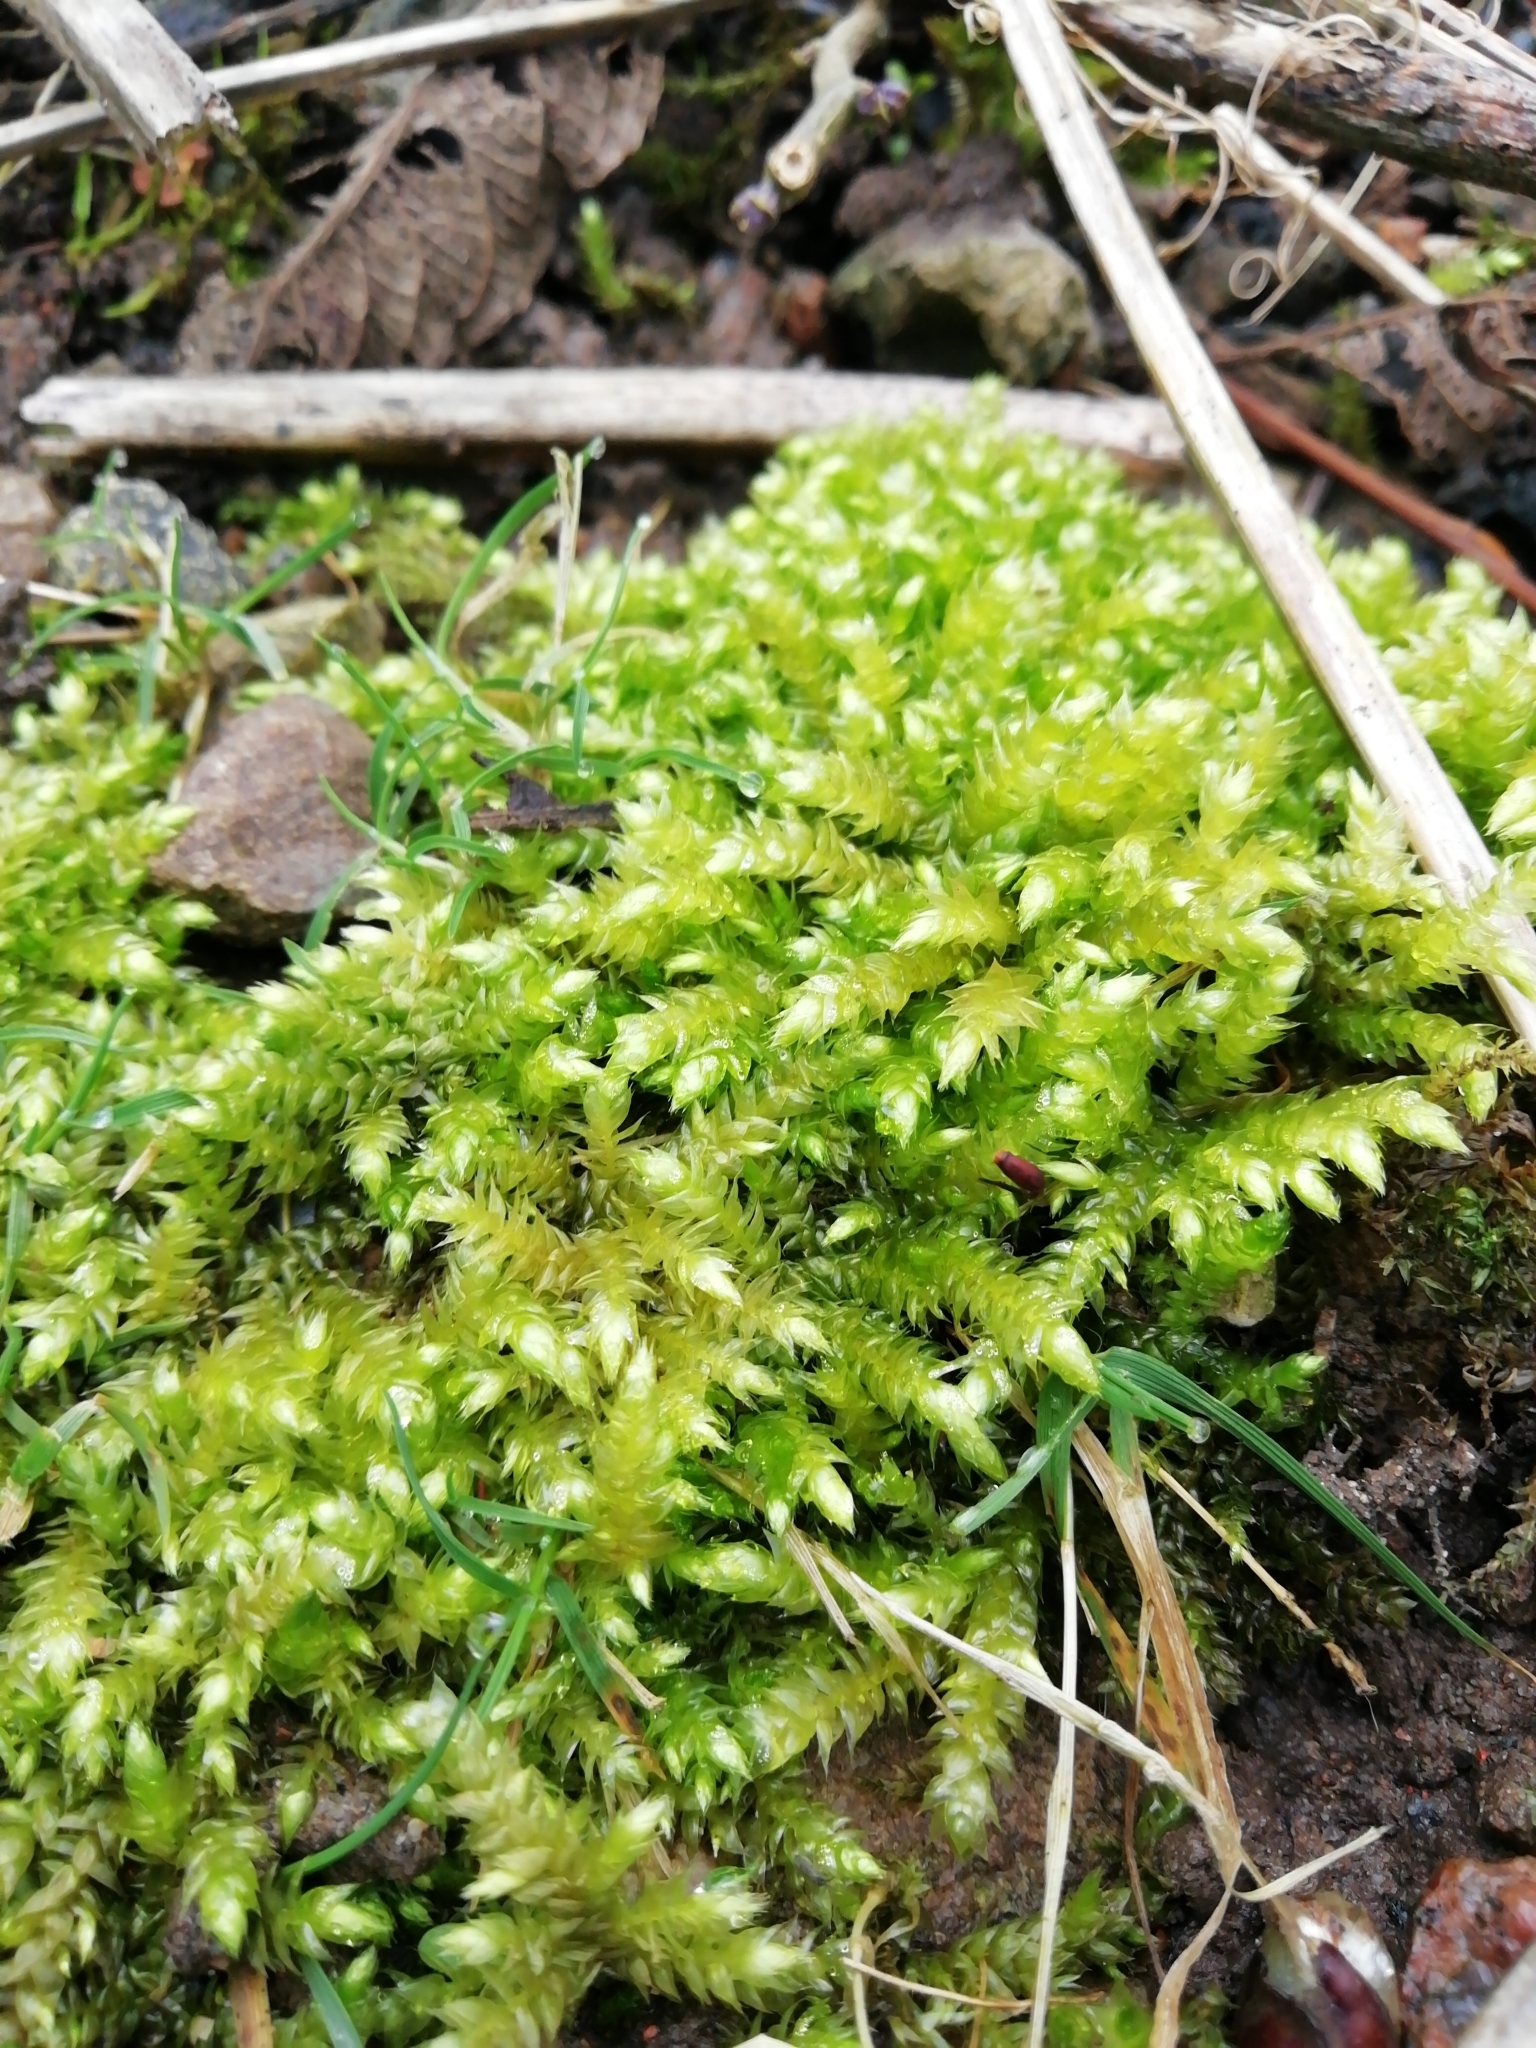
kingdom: Plantae
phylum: Bryophyta
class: Bryopsida
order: Hypnales
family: Brachytheciaceae
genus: Brachythecium
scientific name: Brachythecium rutabulum
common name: Rough-stalked feather-moss
